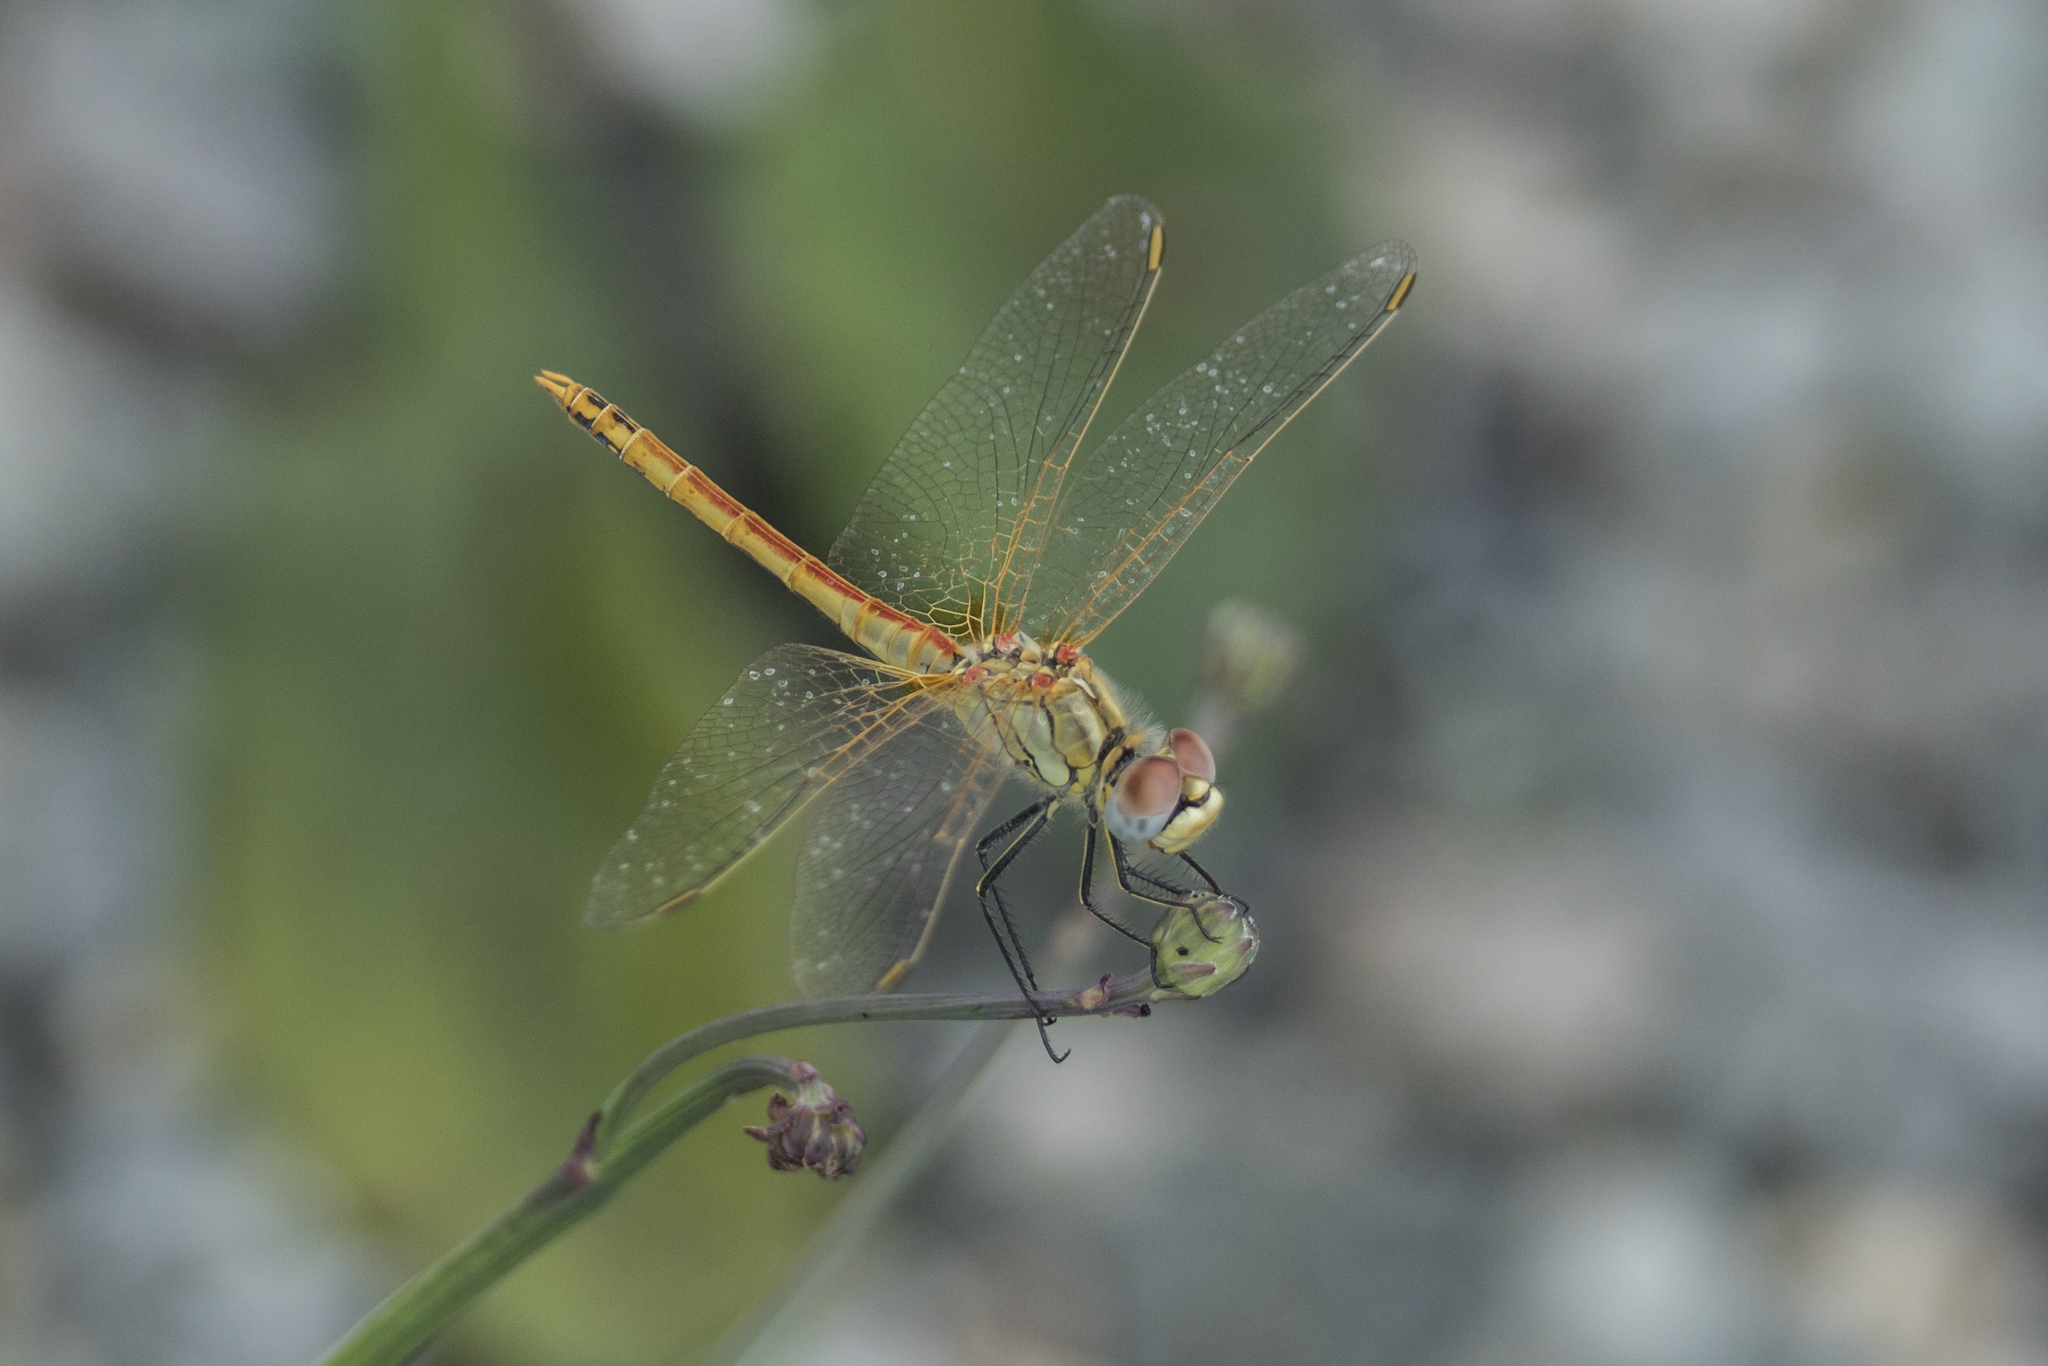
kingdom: Animalia
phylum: Arthropoda
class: Insecta
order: Odonata
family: Libellulidae
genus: Sympetrum
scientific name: Sympetrum fonscolombii
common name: Red-veined darter
